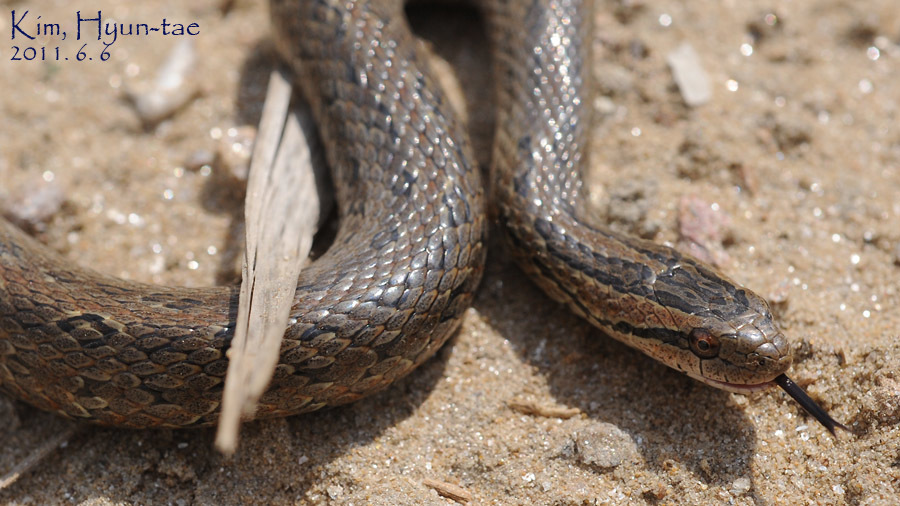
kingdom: Animalia
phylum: Chordata
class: Squamata
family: Colubridae
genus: Oocatochus
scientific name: Oocatochus rufodorsatus
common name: Frog-eating rat snake
